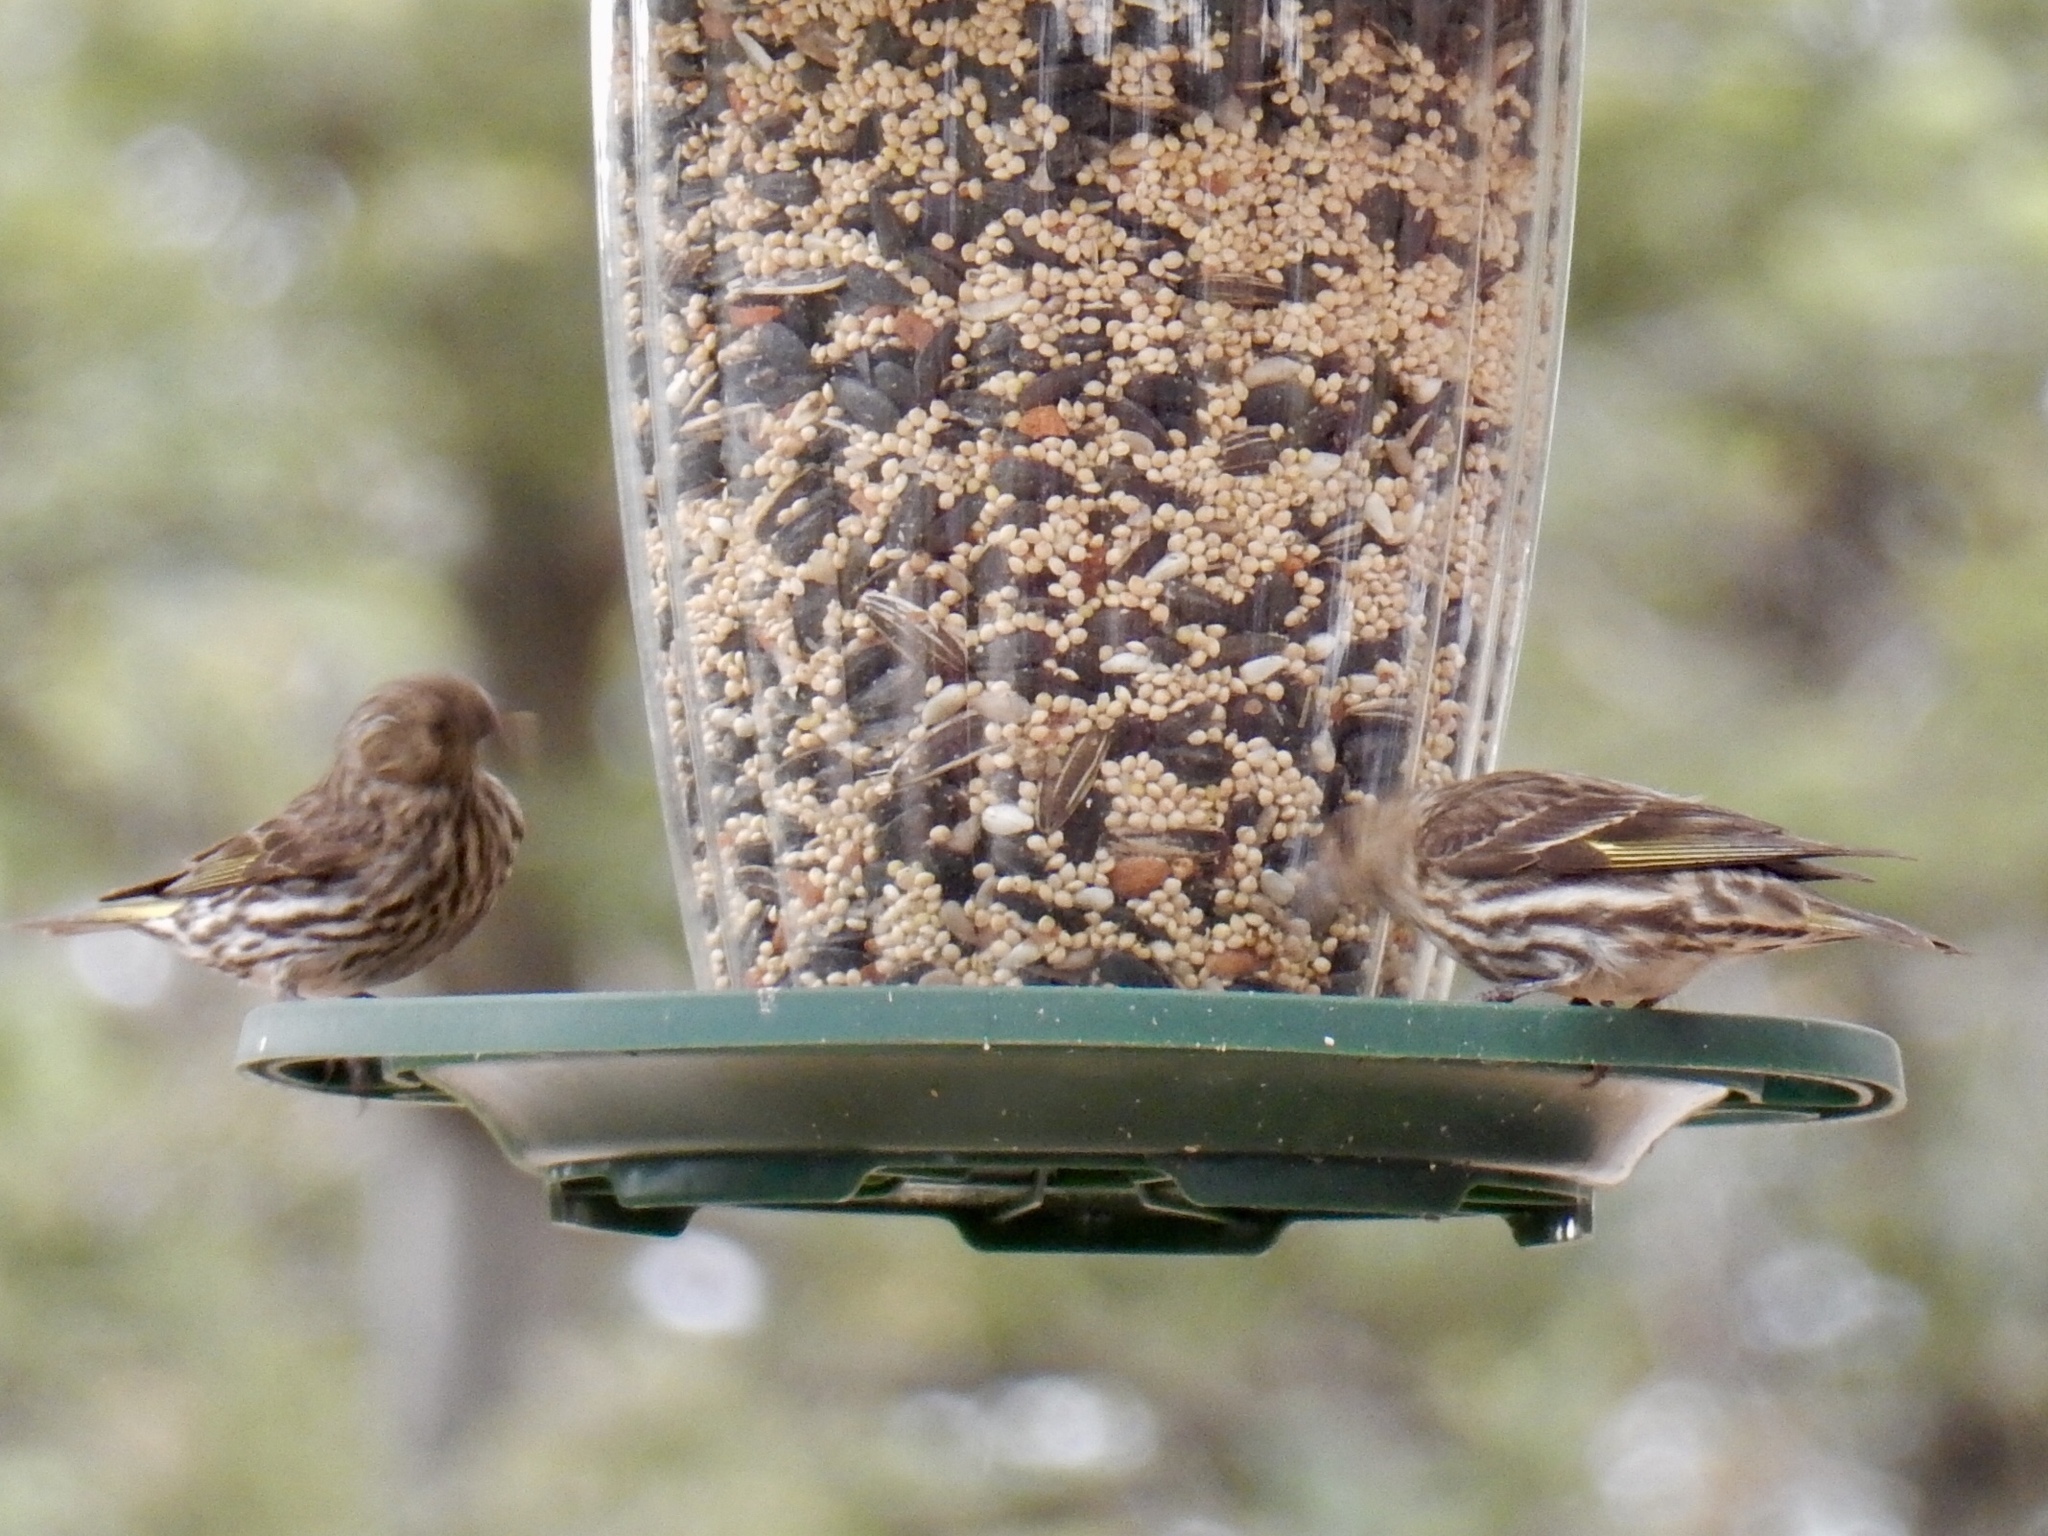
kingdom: Animalia
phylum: Chordata
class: Aves
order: Passeriformes
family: Fringillidae
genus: Spinus
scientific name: Spinus pinus
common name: Pine siskin
